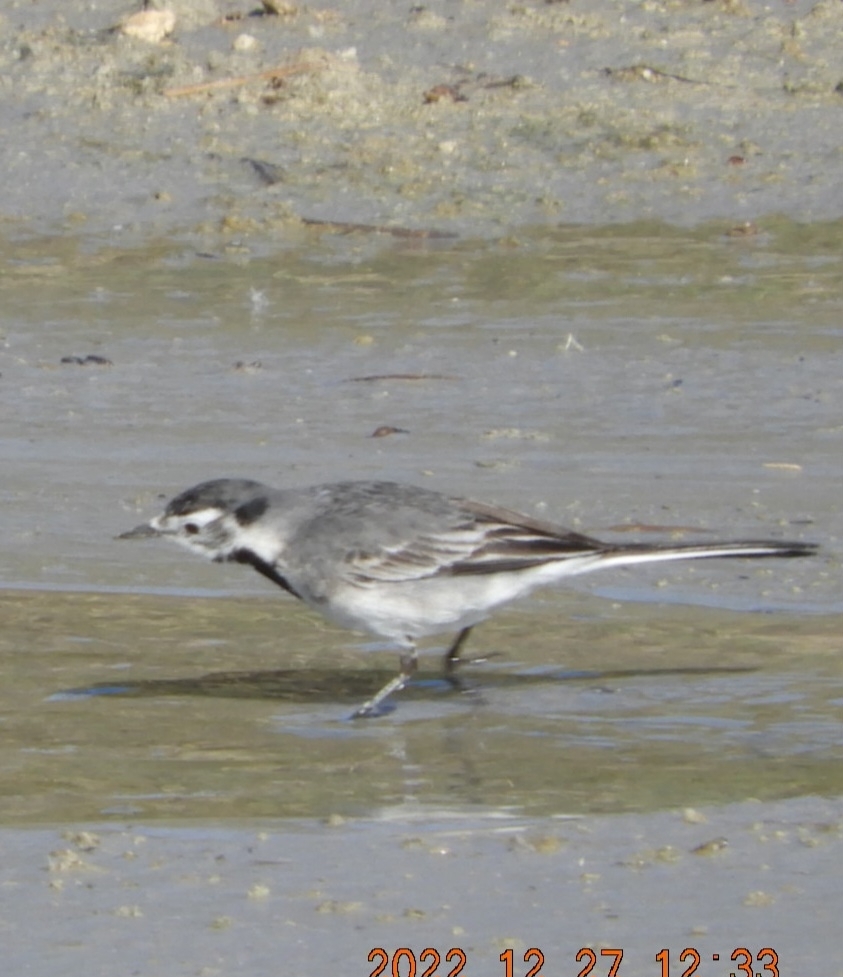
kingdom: Animalia
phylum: Chordata
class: Aves
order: Passeriformes
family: Motacillidae
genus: Motacilla
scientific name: Motacilla alba
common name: White wagtail
